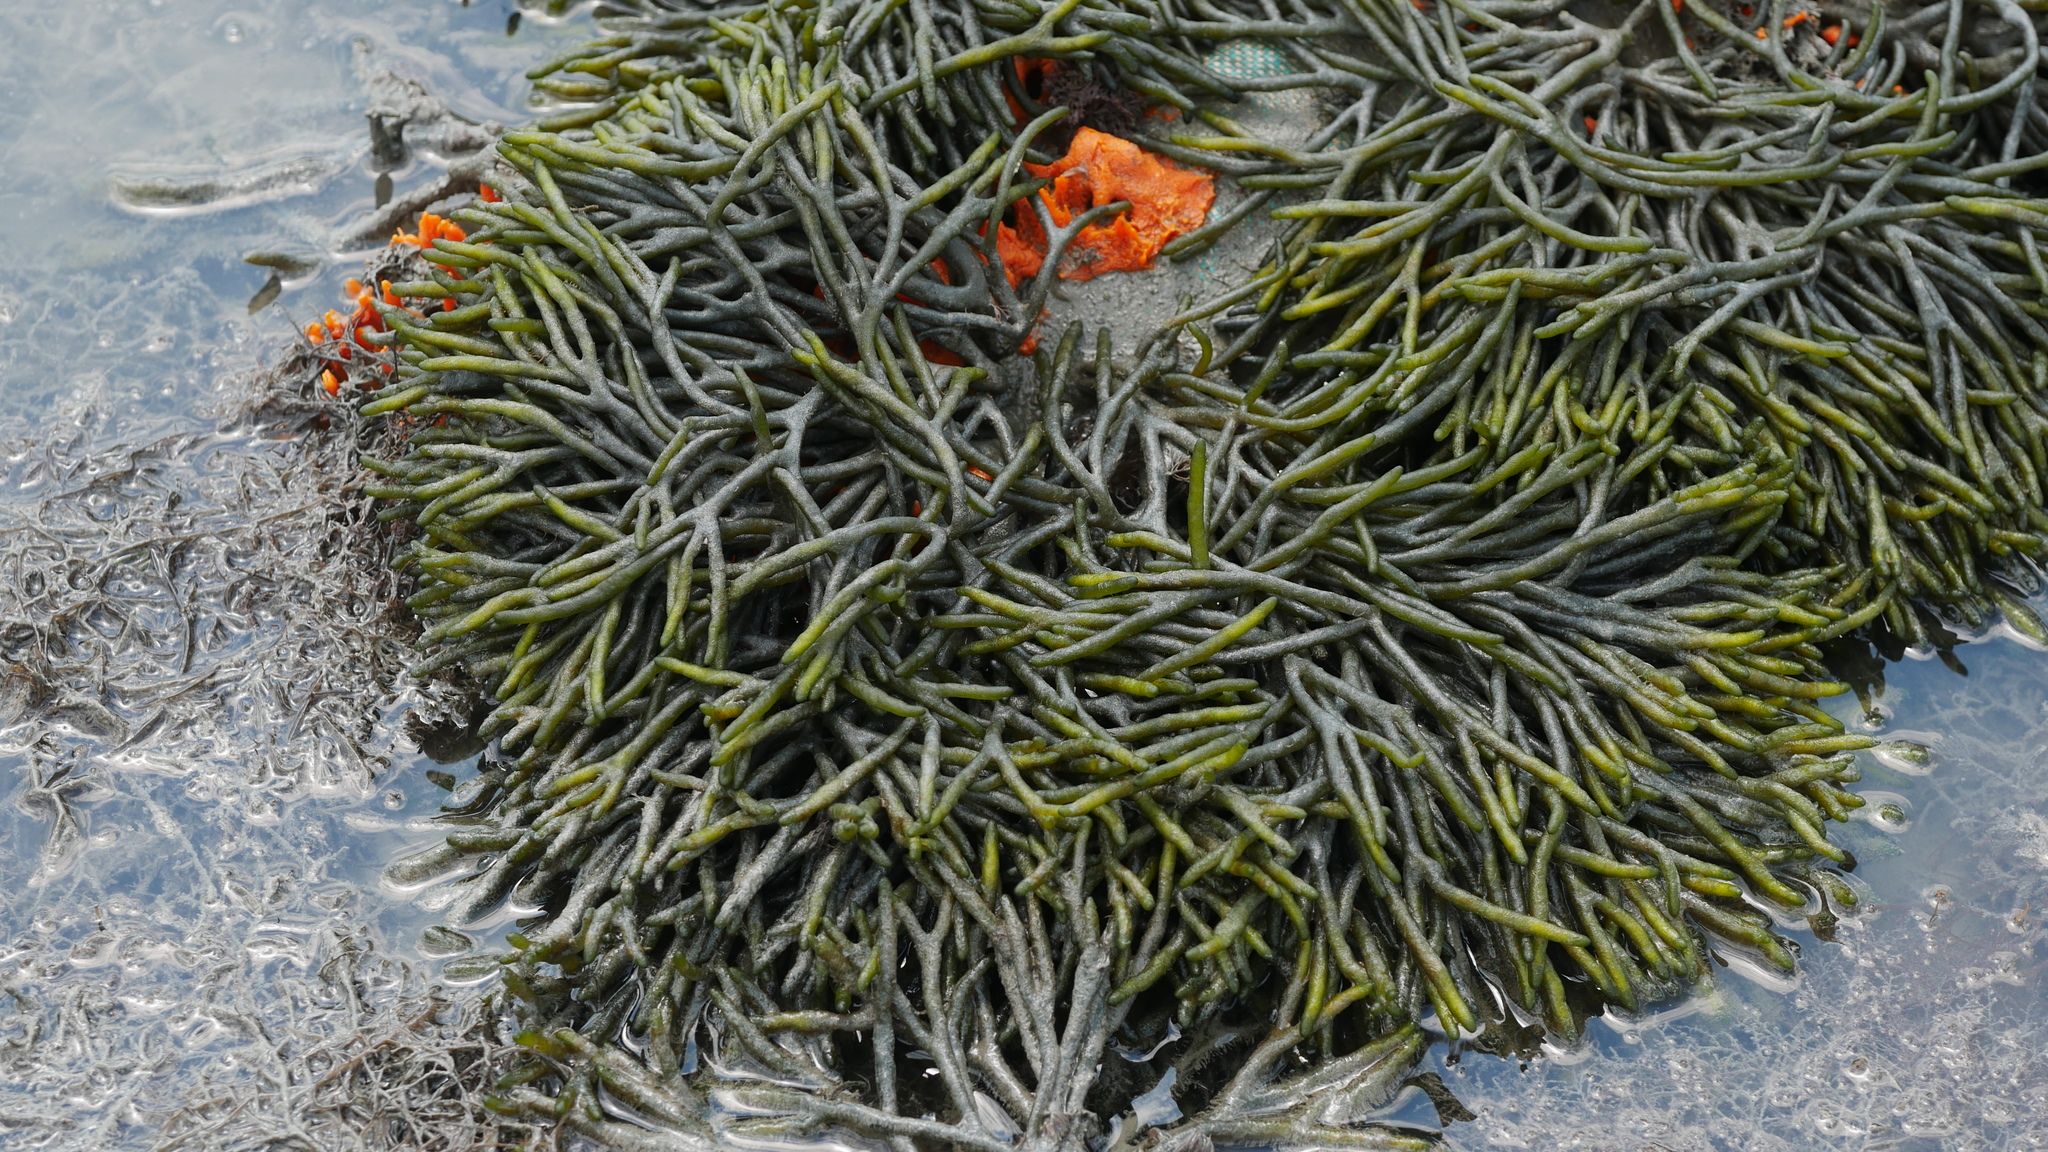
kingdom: Plantae
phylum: Chlorophyta
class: Ulvophyceae
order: Bryopsidales
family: Codiaceae
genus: Codium
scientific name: Codium fragile
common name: Dead man's fingers
